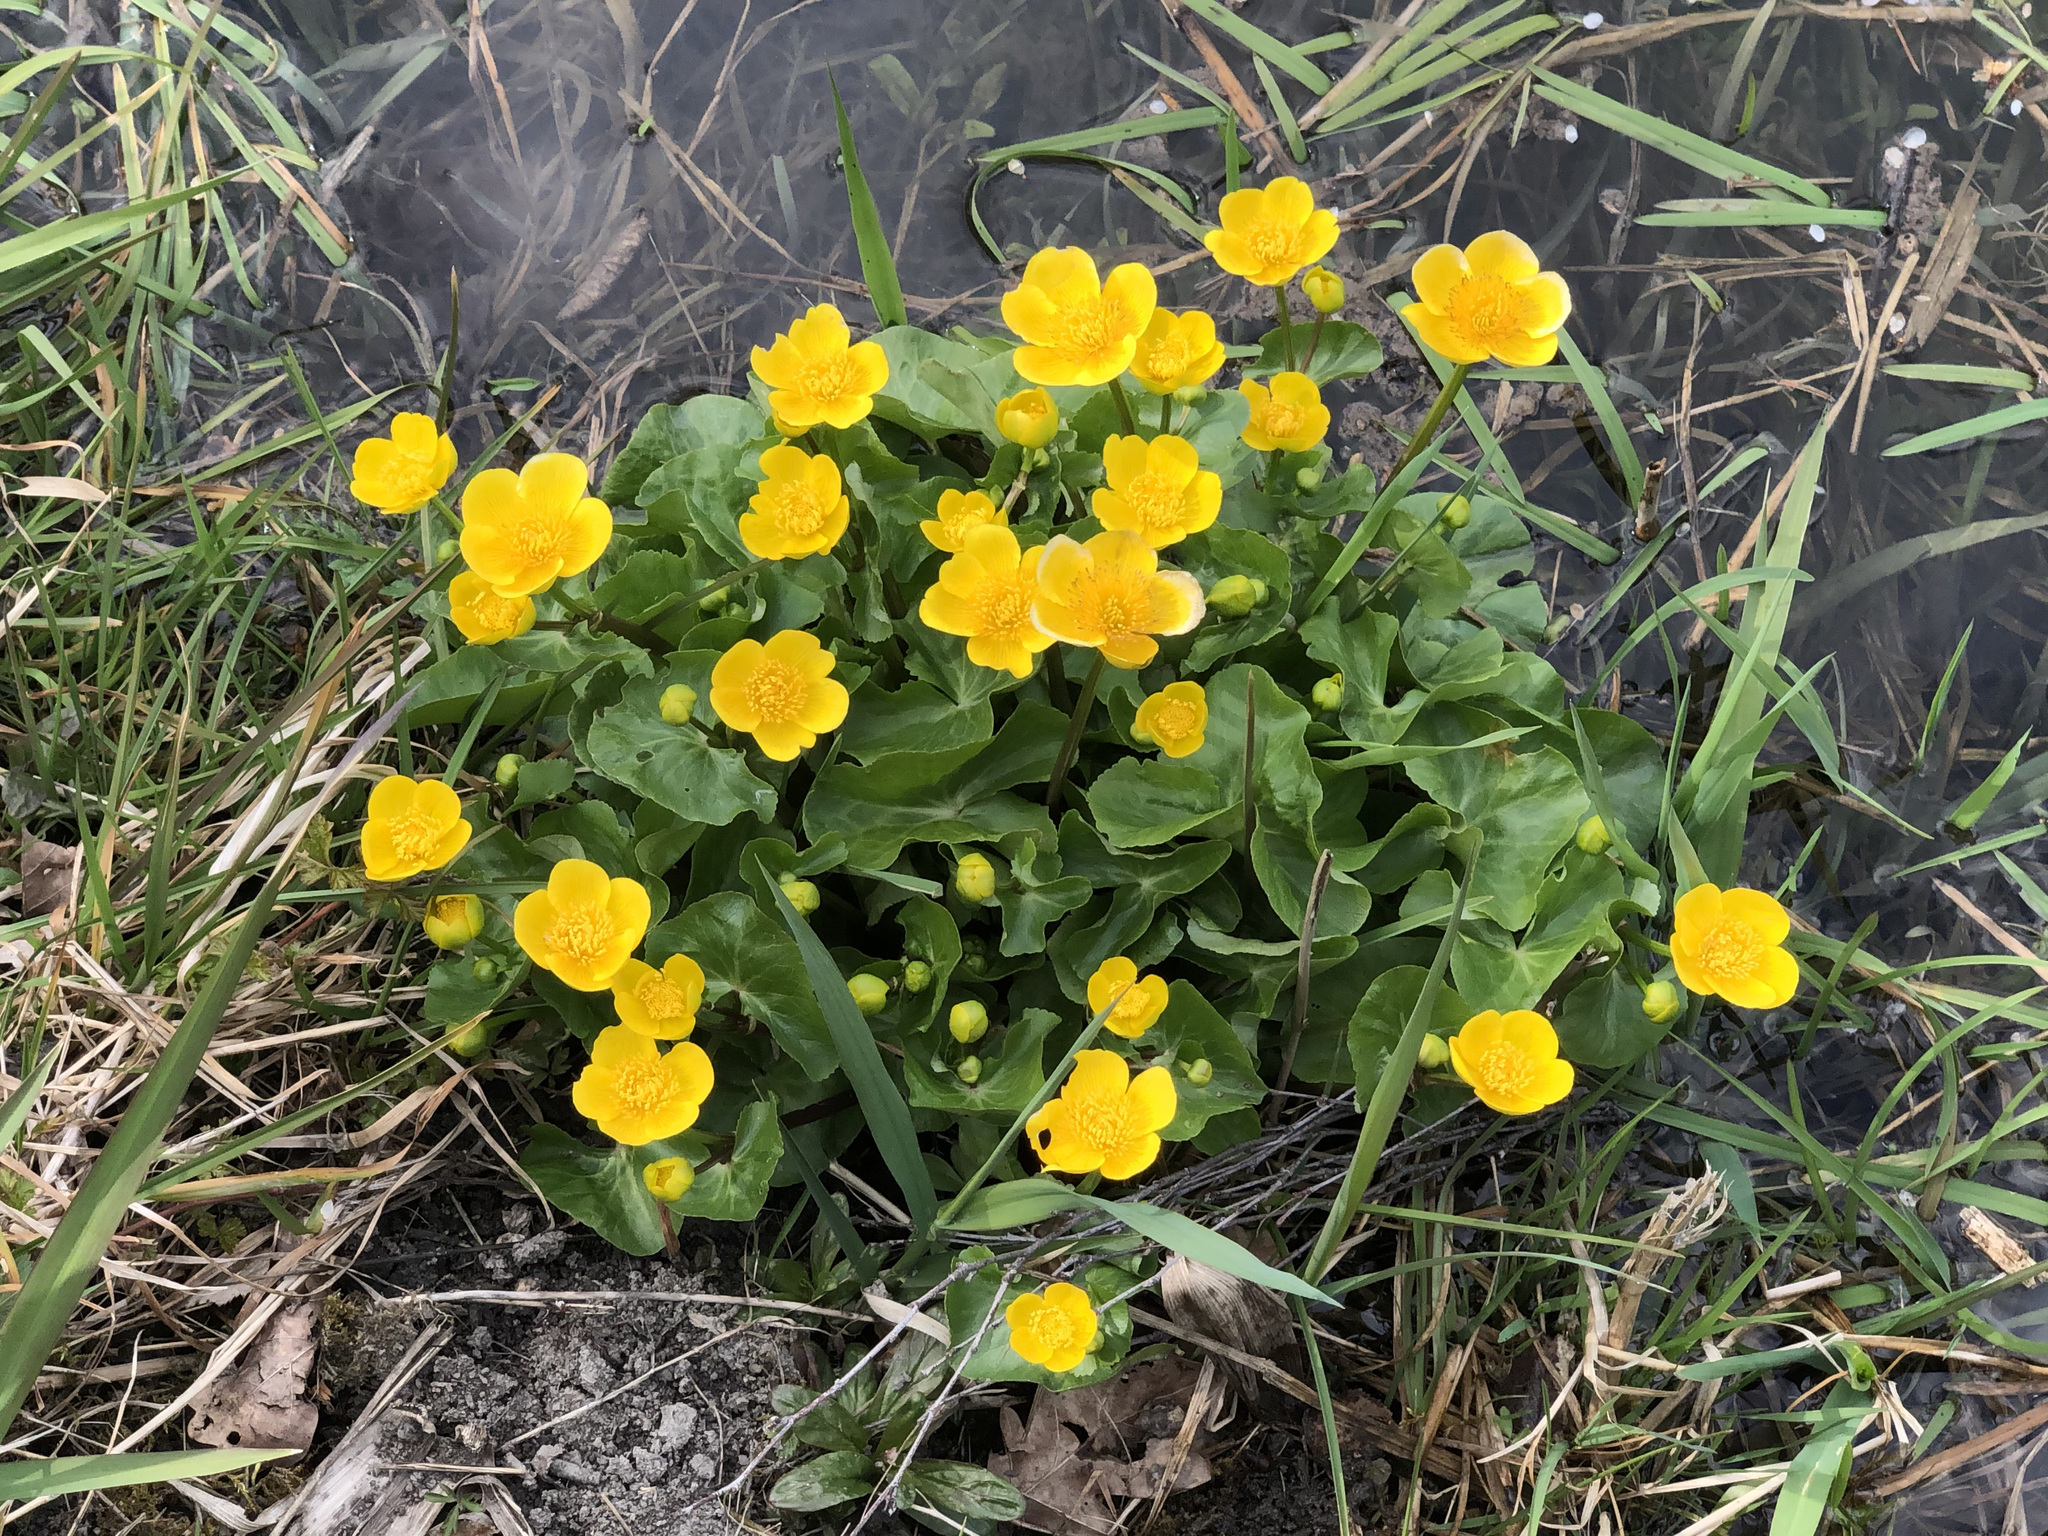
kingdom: Plantae
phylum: Tracheophyta
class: Magnoliopsida
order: Ranunculales
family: Ranunculaceae
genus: Caltha
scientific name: Caltha palustris
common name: Marsh marigold
